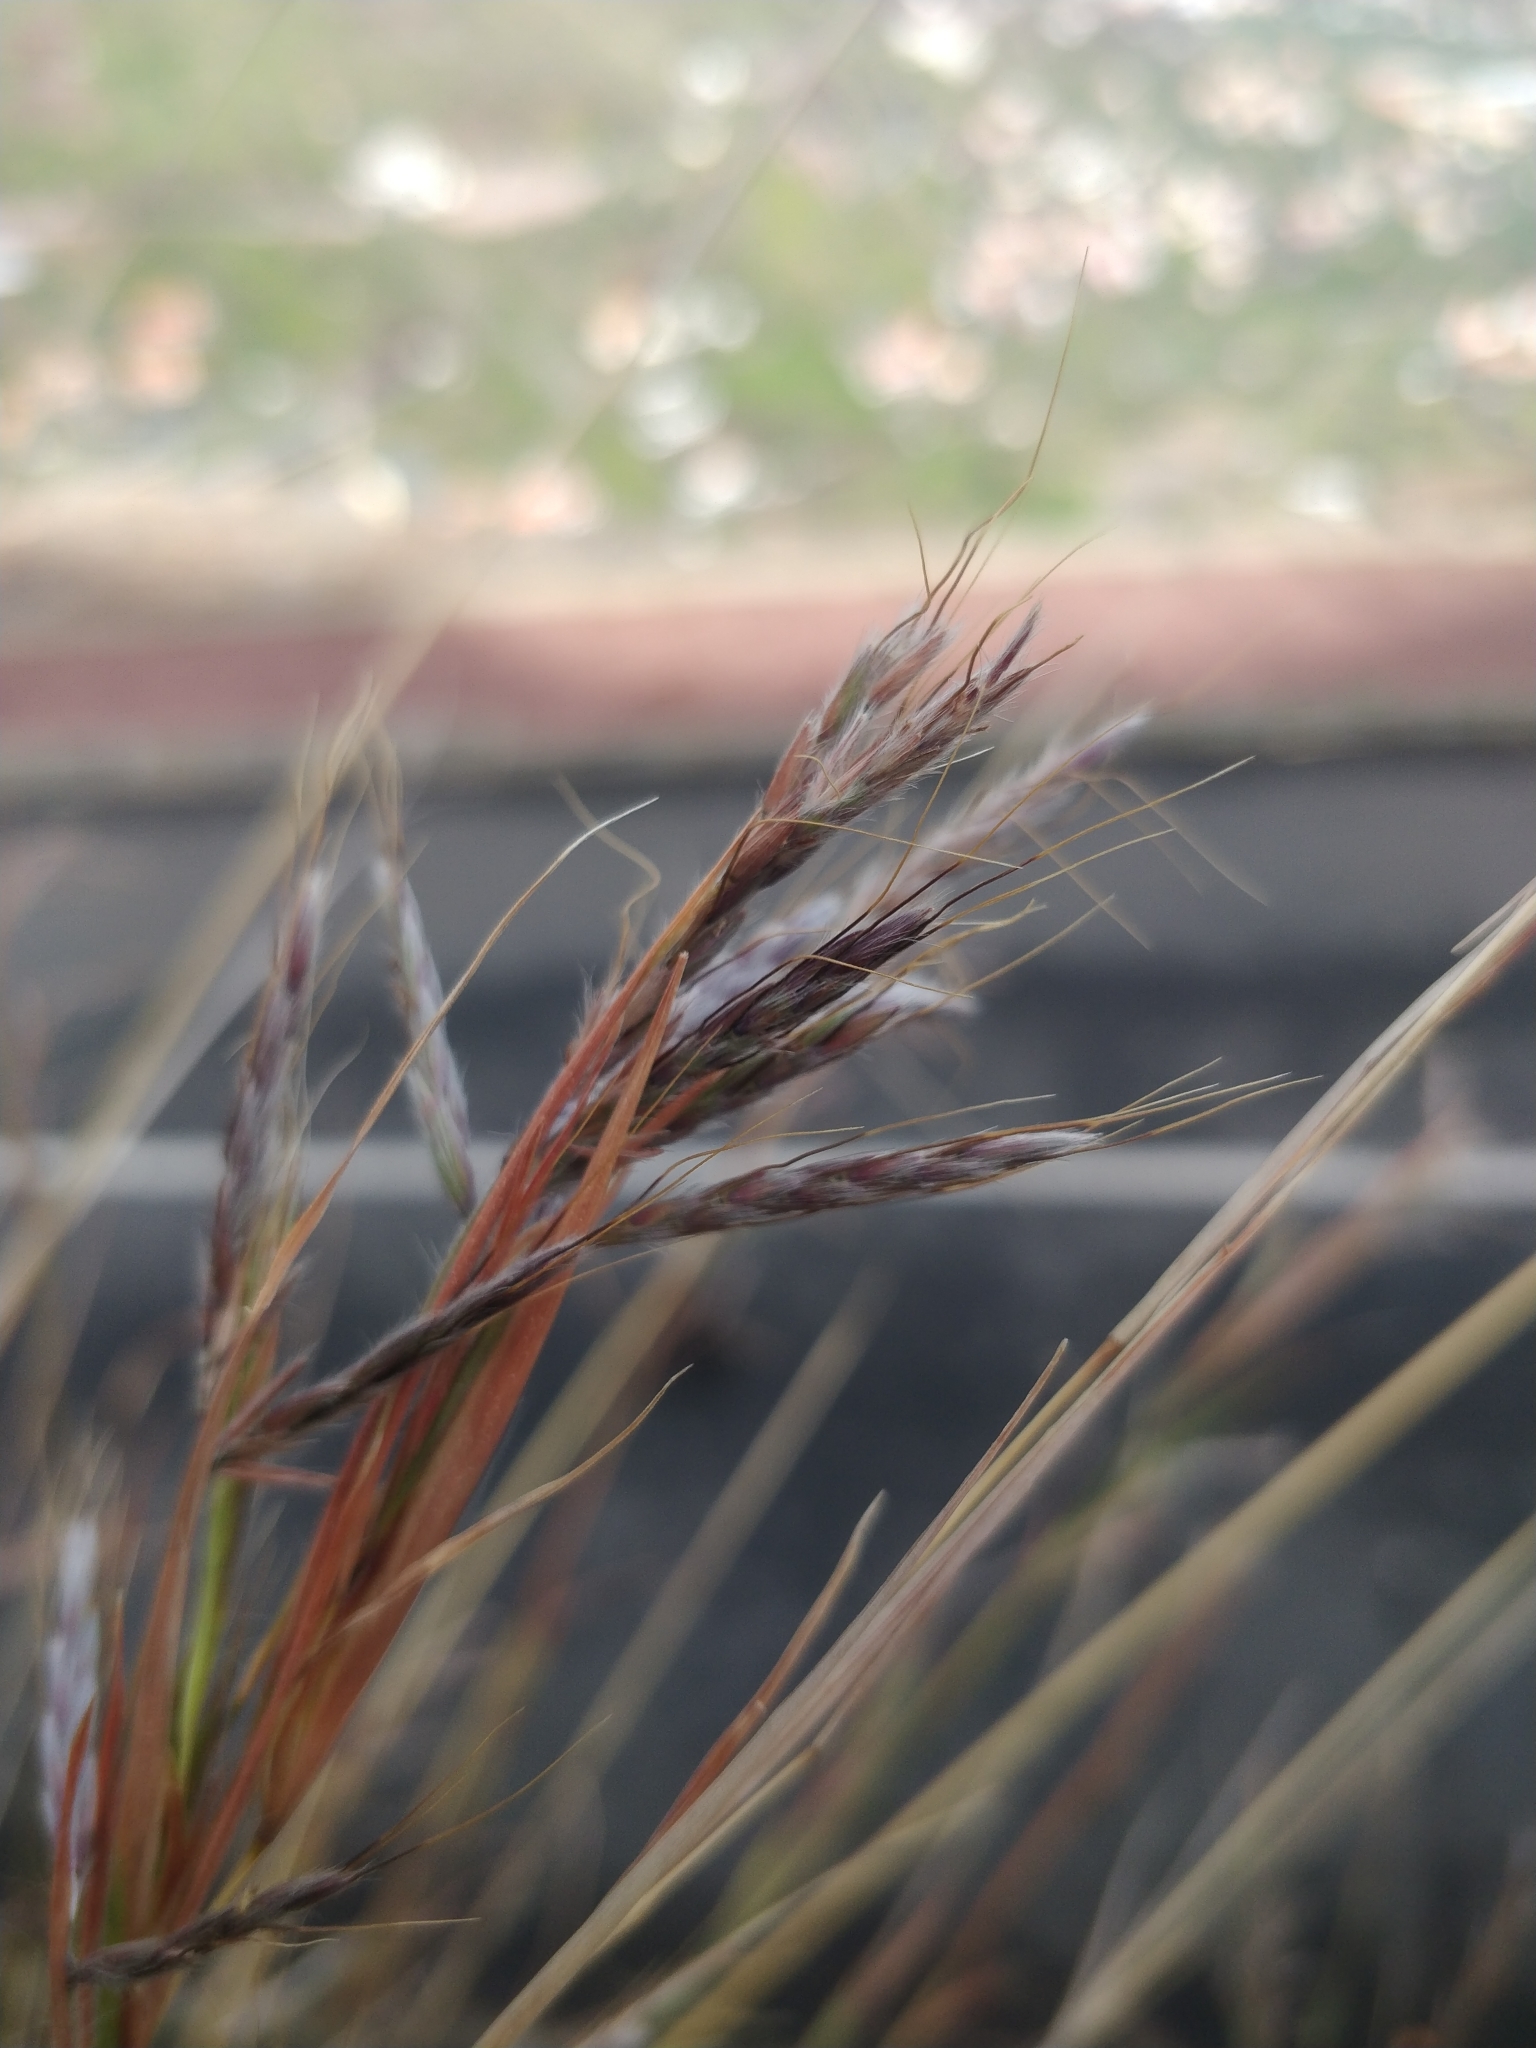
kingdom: Plantae
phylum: Tracheophyta
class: Liliopsida
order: Poales
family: Poaceae
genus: Hyparrhenia
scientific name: Hyparrhenia hirta
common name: Thatching grass
